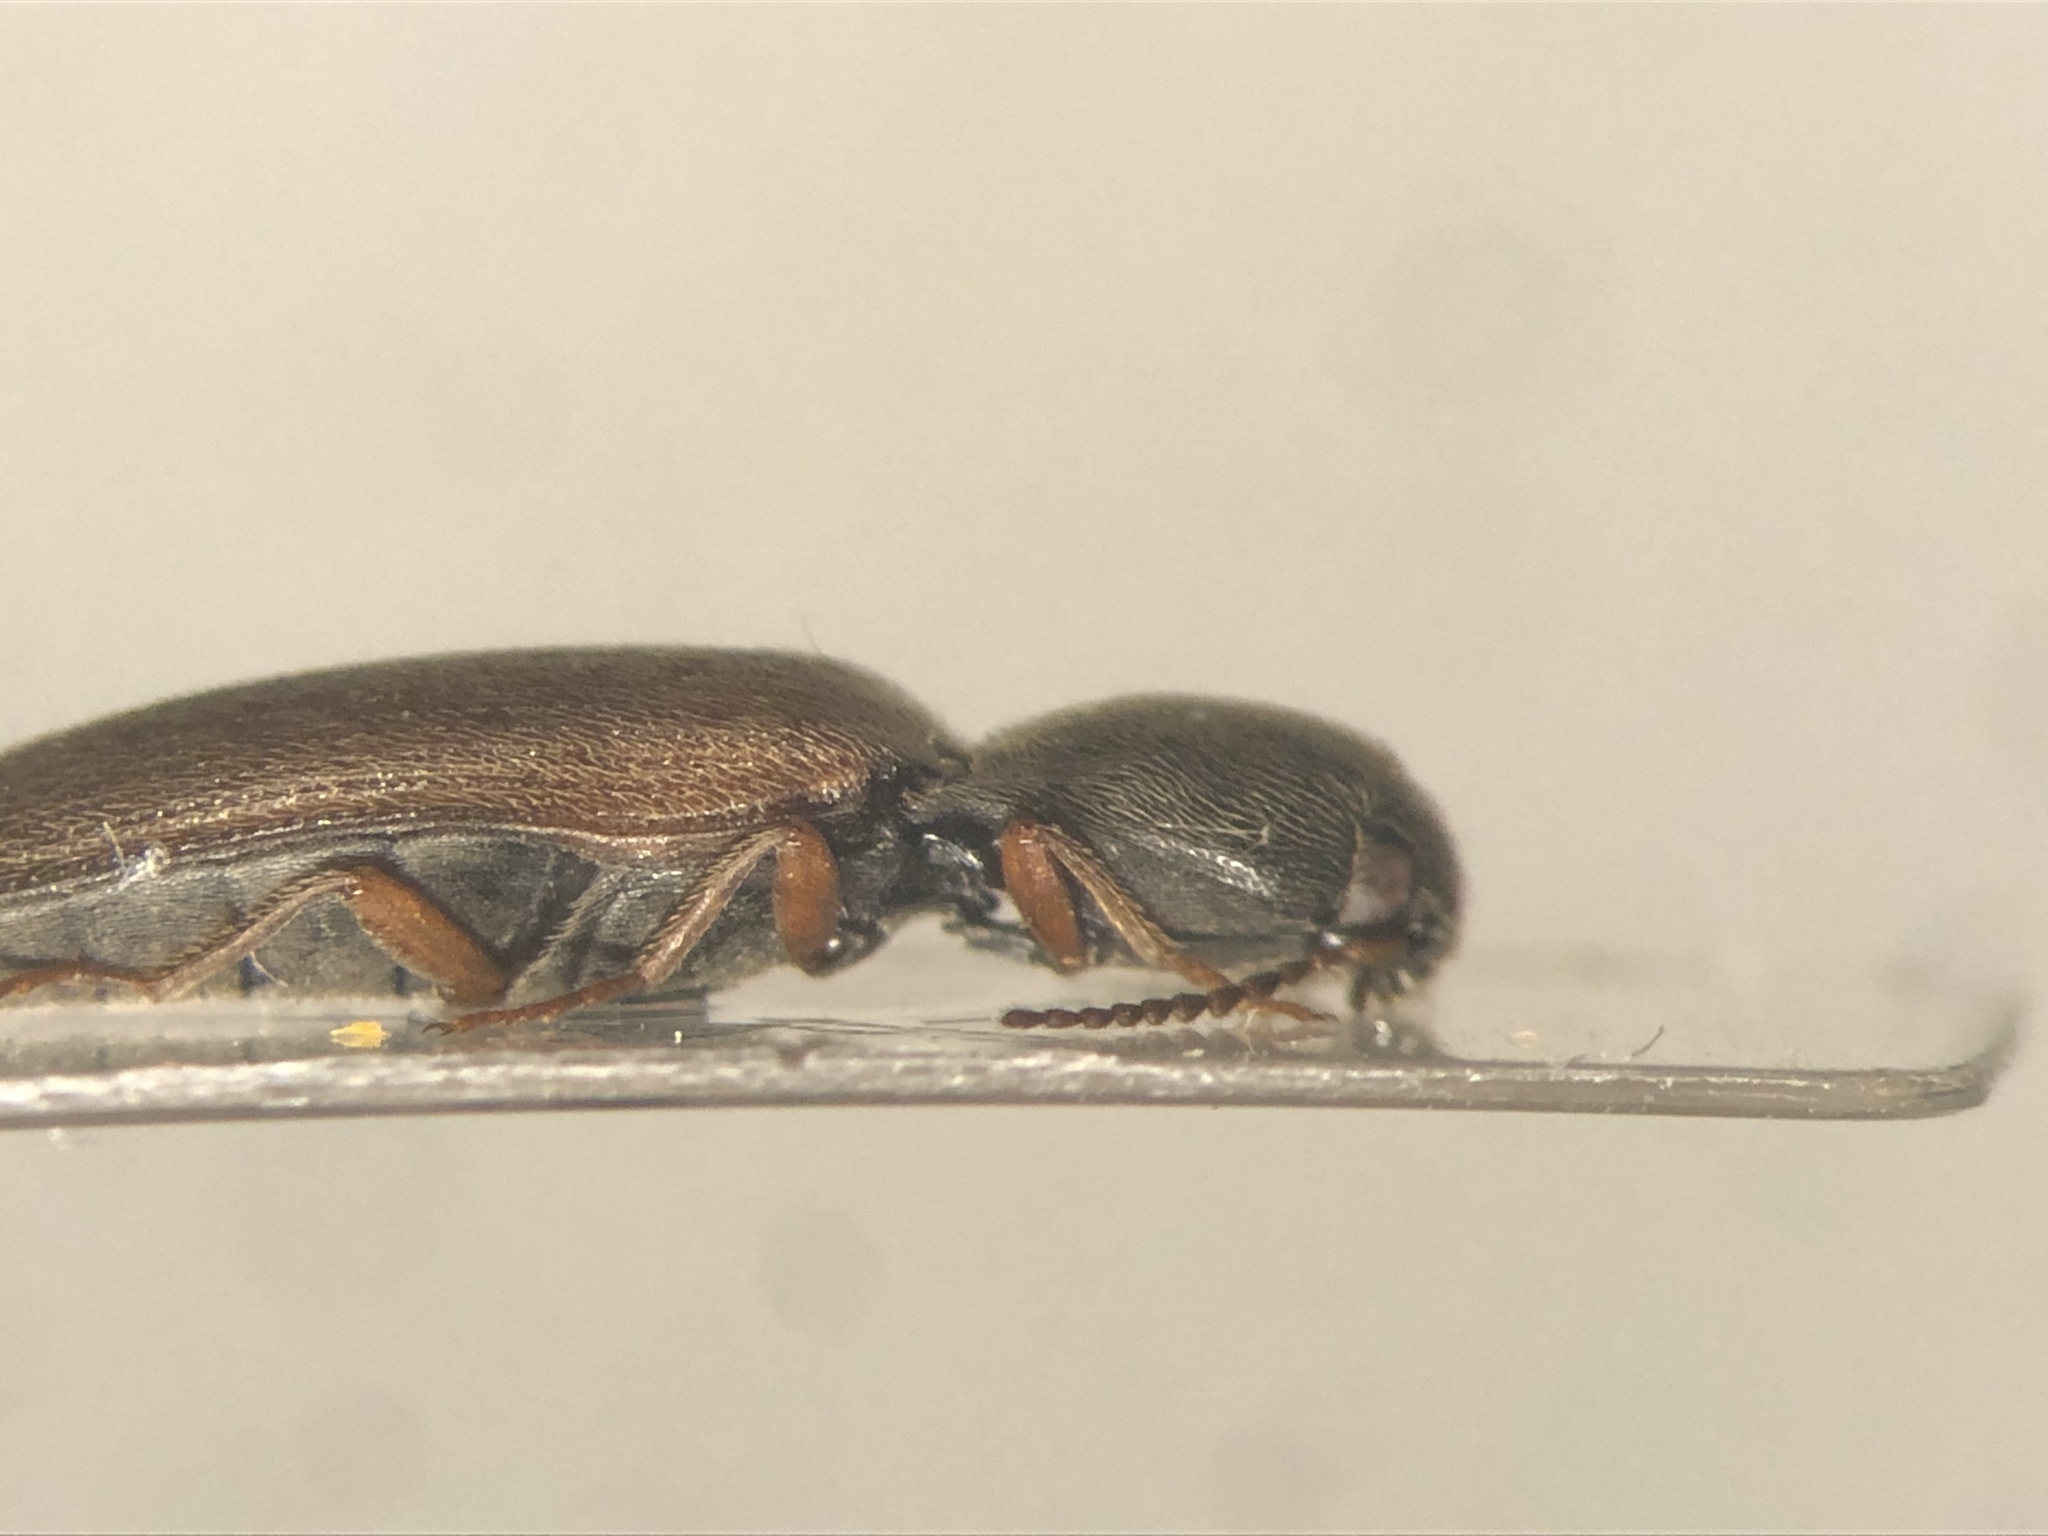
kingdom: Animalia
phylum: Arthropoda
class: Insecta
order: Coleoptera
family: Elateridae
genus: Agriotes
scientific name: Agriotes quebecensis
